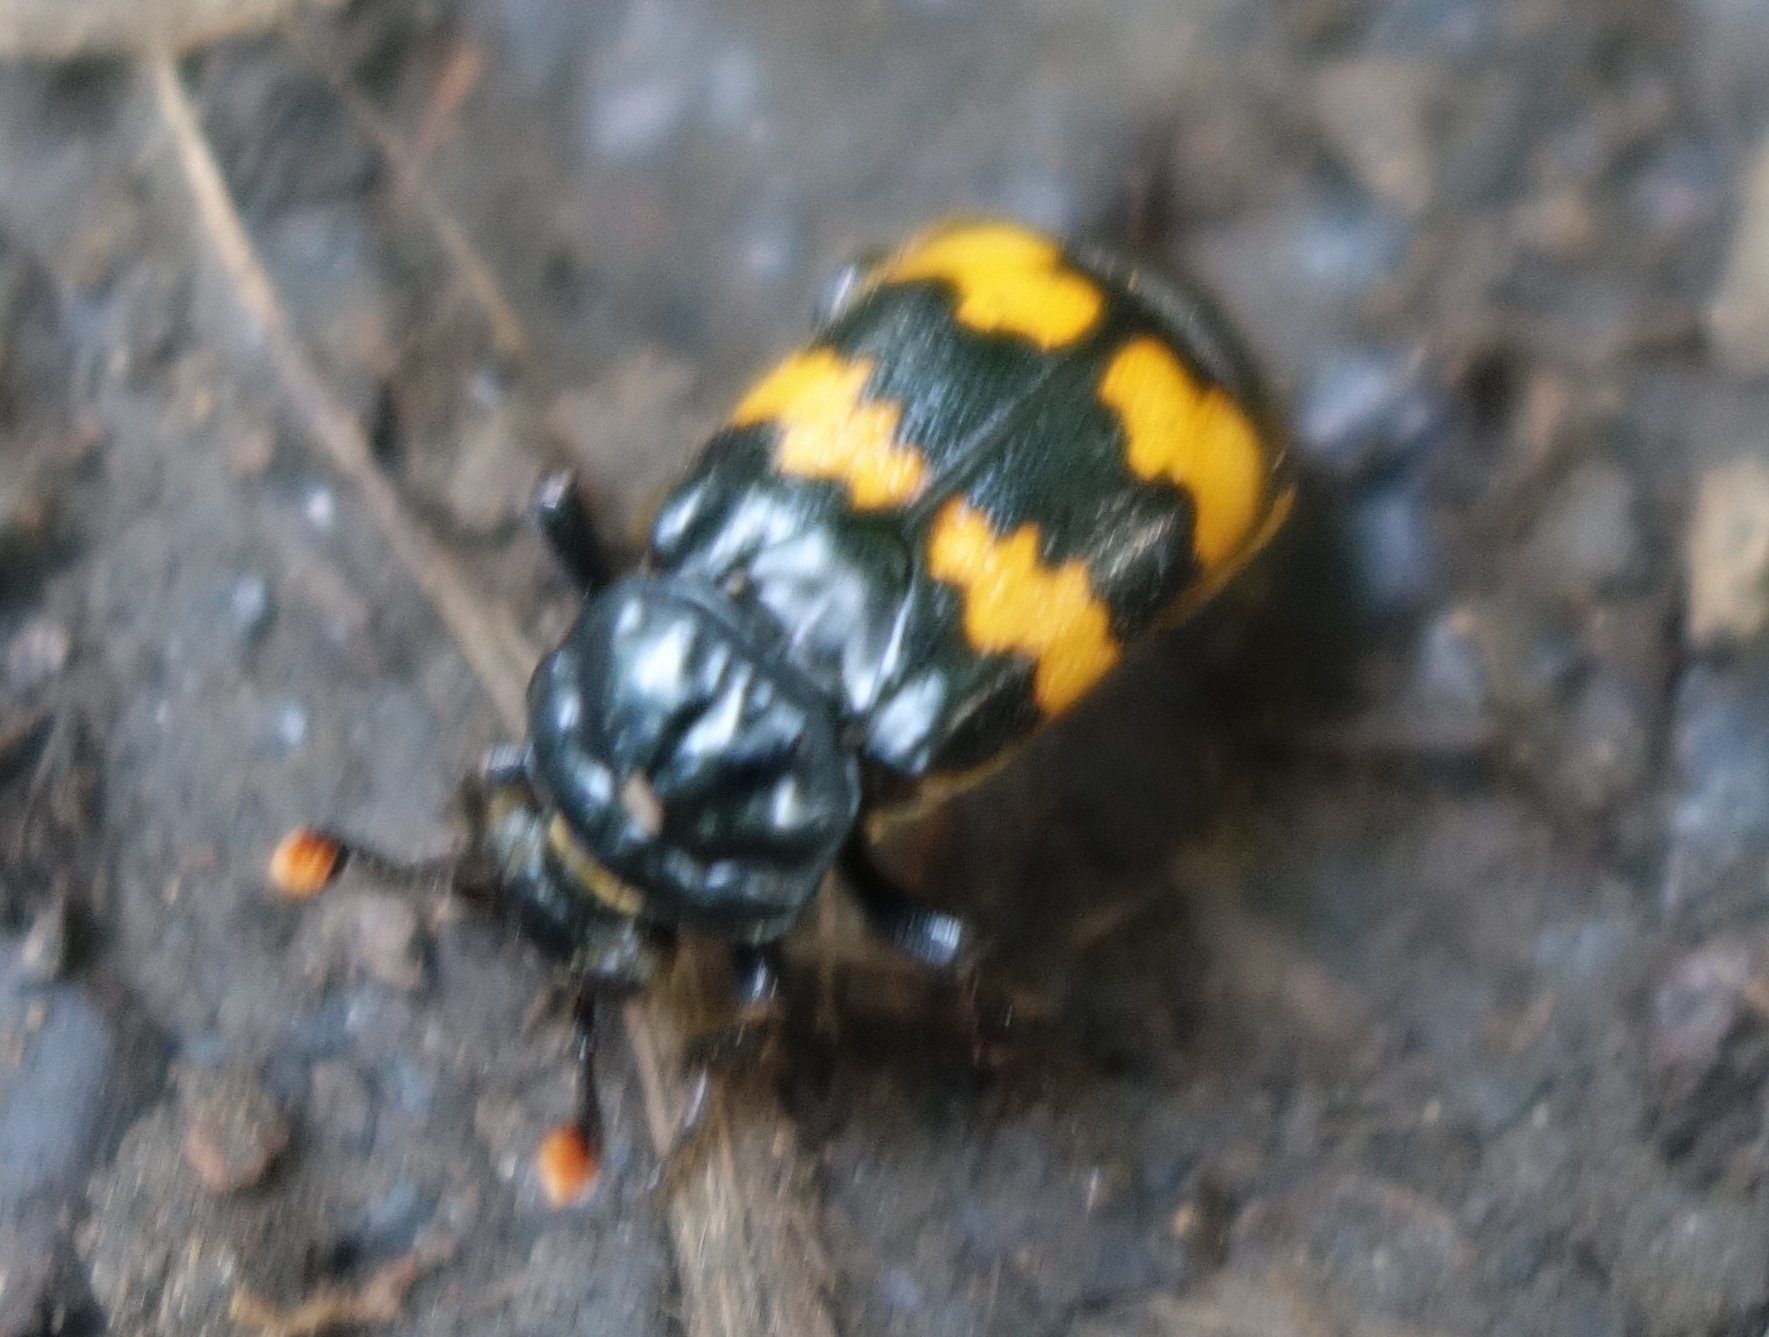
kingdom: Animalia
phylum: Arthropoda
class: Insecta
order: Coleoptera
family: Staphylinidae
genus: Nicrophorus
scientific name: Nicrophorus interruptus
